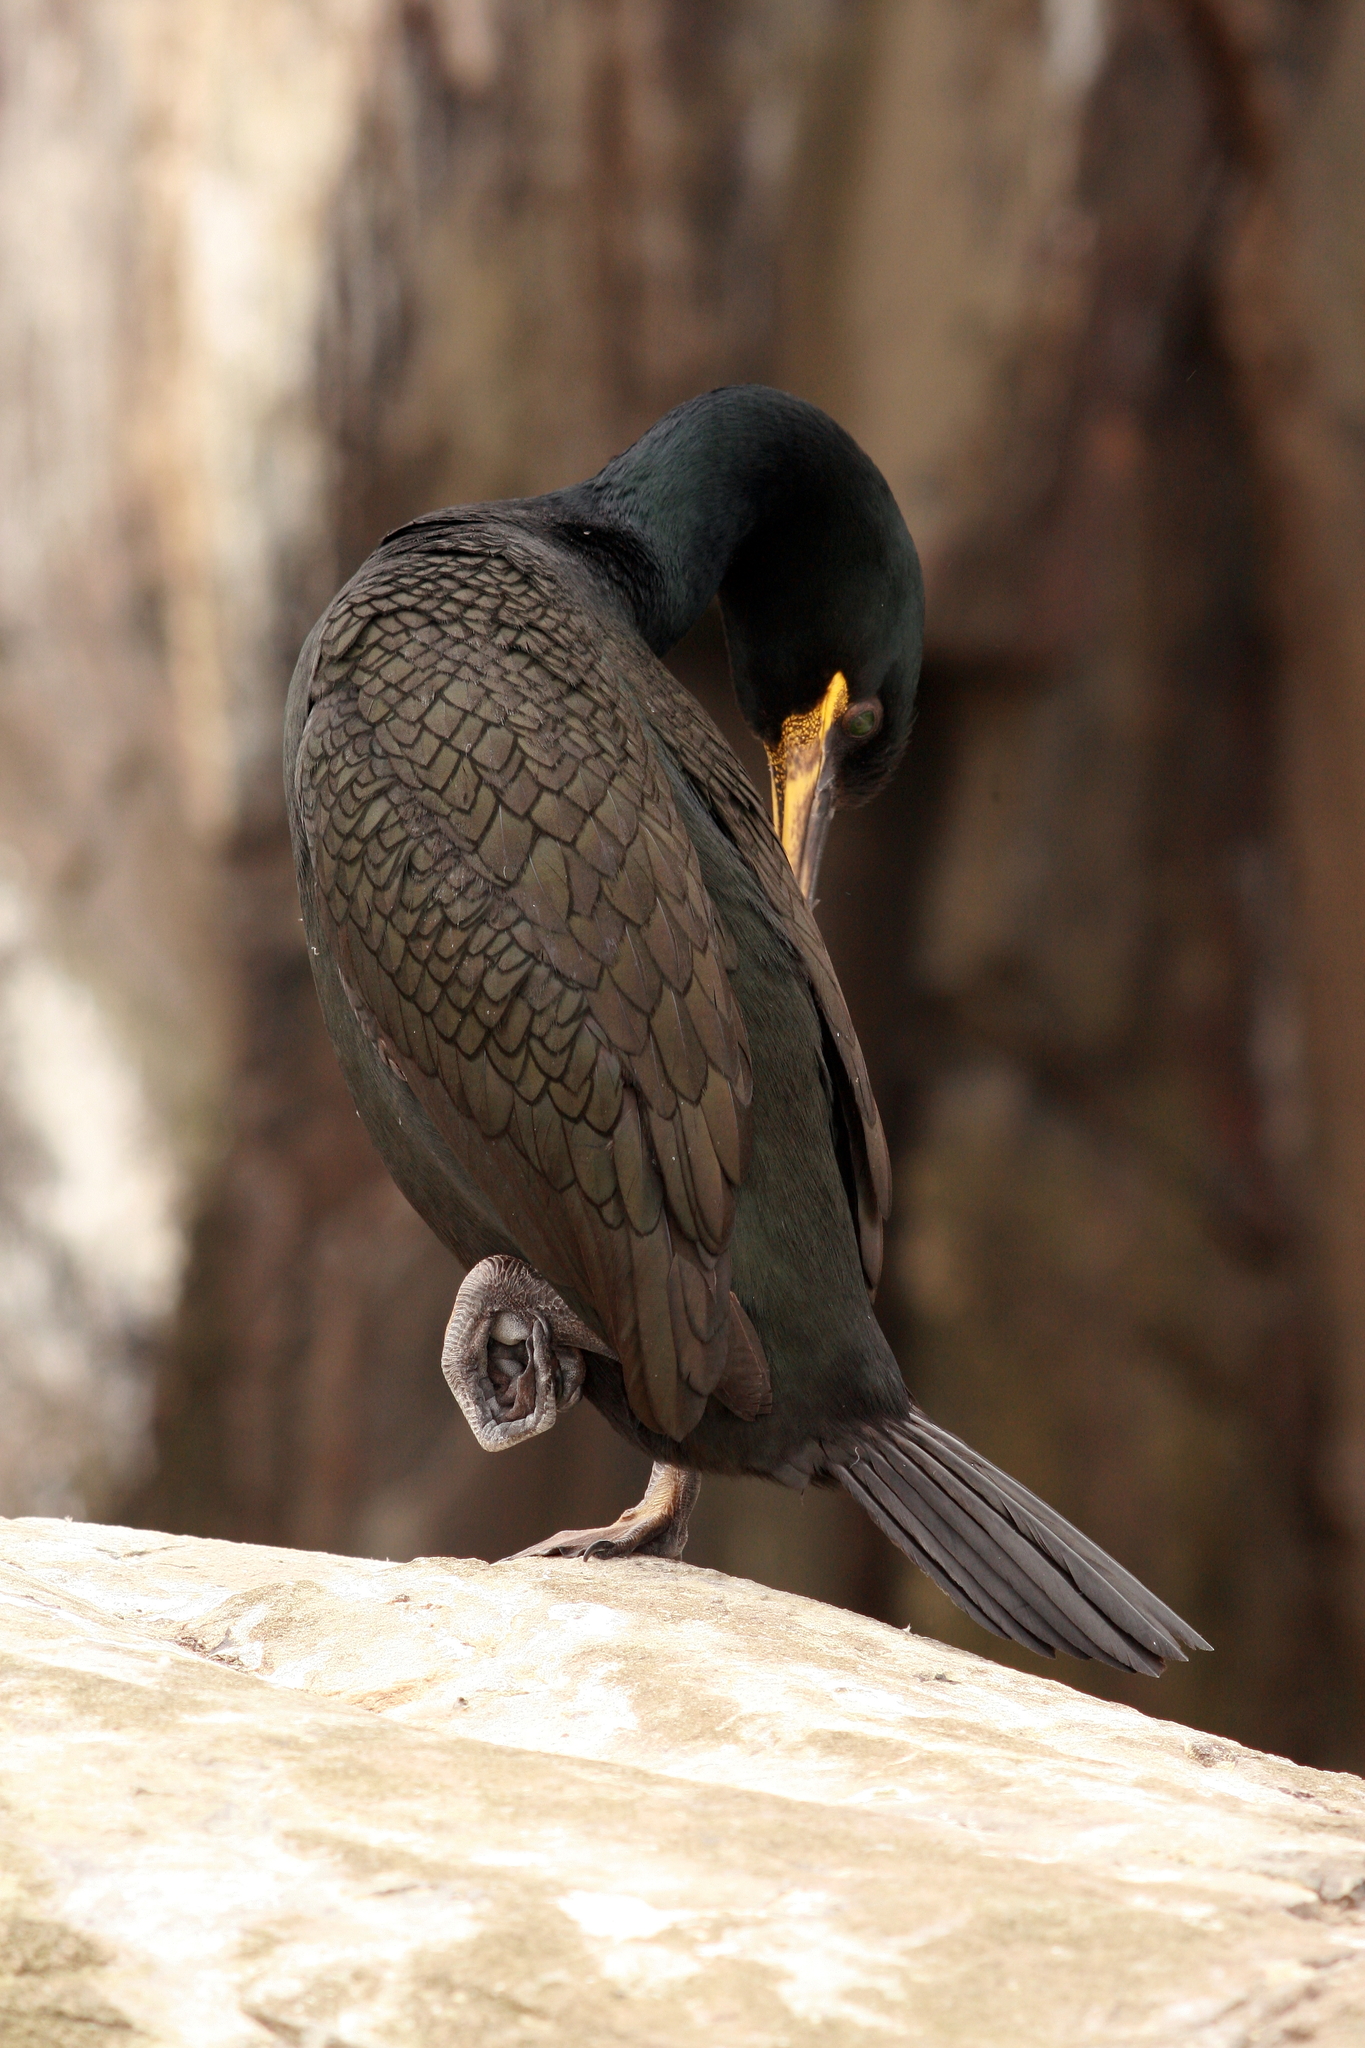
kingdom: Animalia
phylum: Chordata
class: Aves
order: Suliformes
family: Phalacrocoracidae
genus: Phalacrocorax
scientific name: Phalacrocorax aristotelis
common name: European shag
